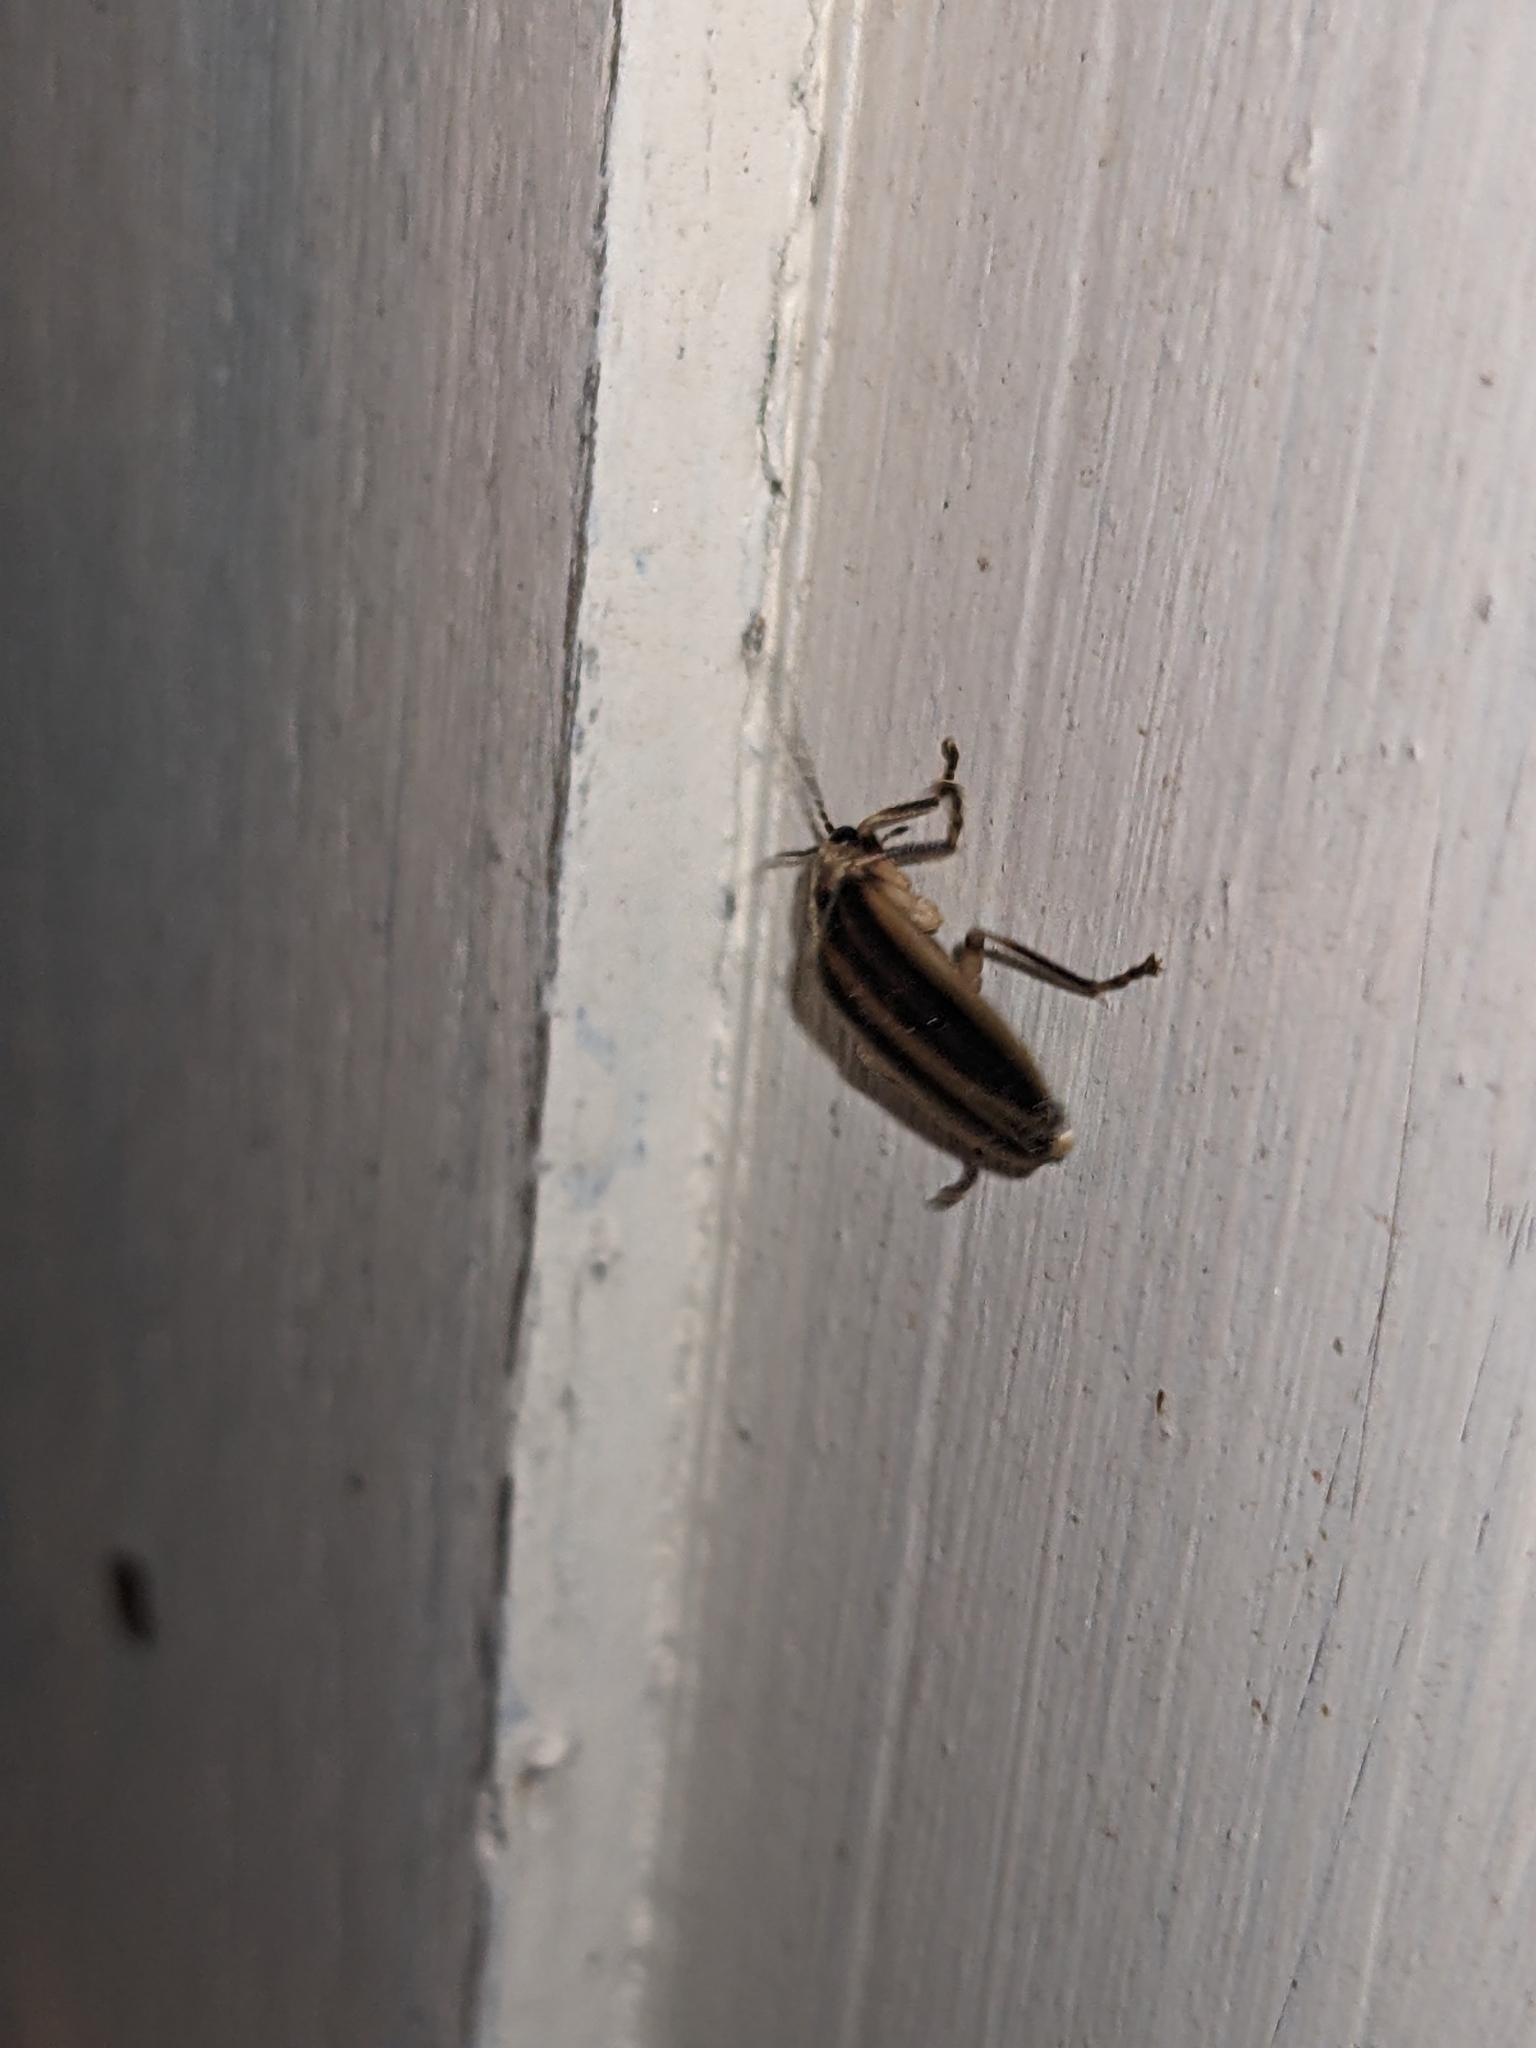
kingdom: Animalia
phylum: Arthropoda
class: Insecta
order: Coleoptera
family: Lampyridae
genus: Photuris
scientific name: Photuris
